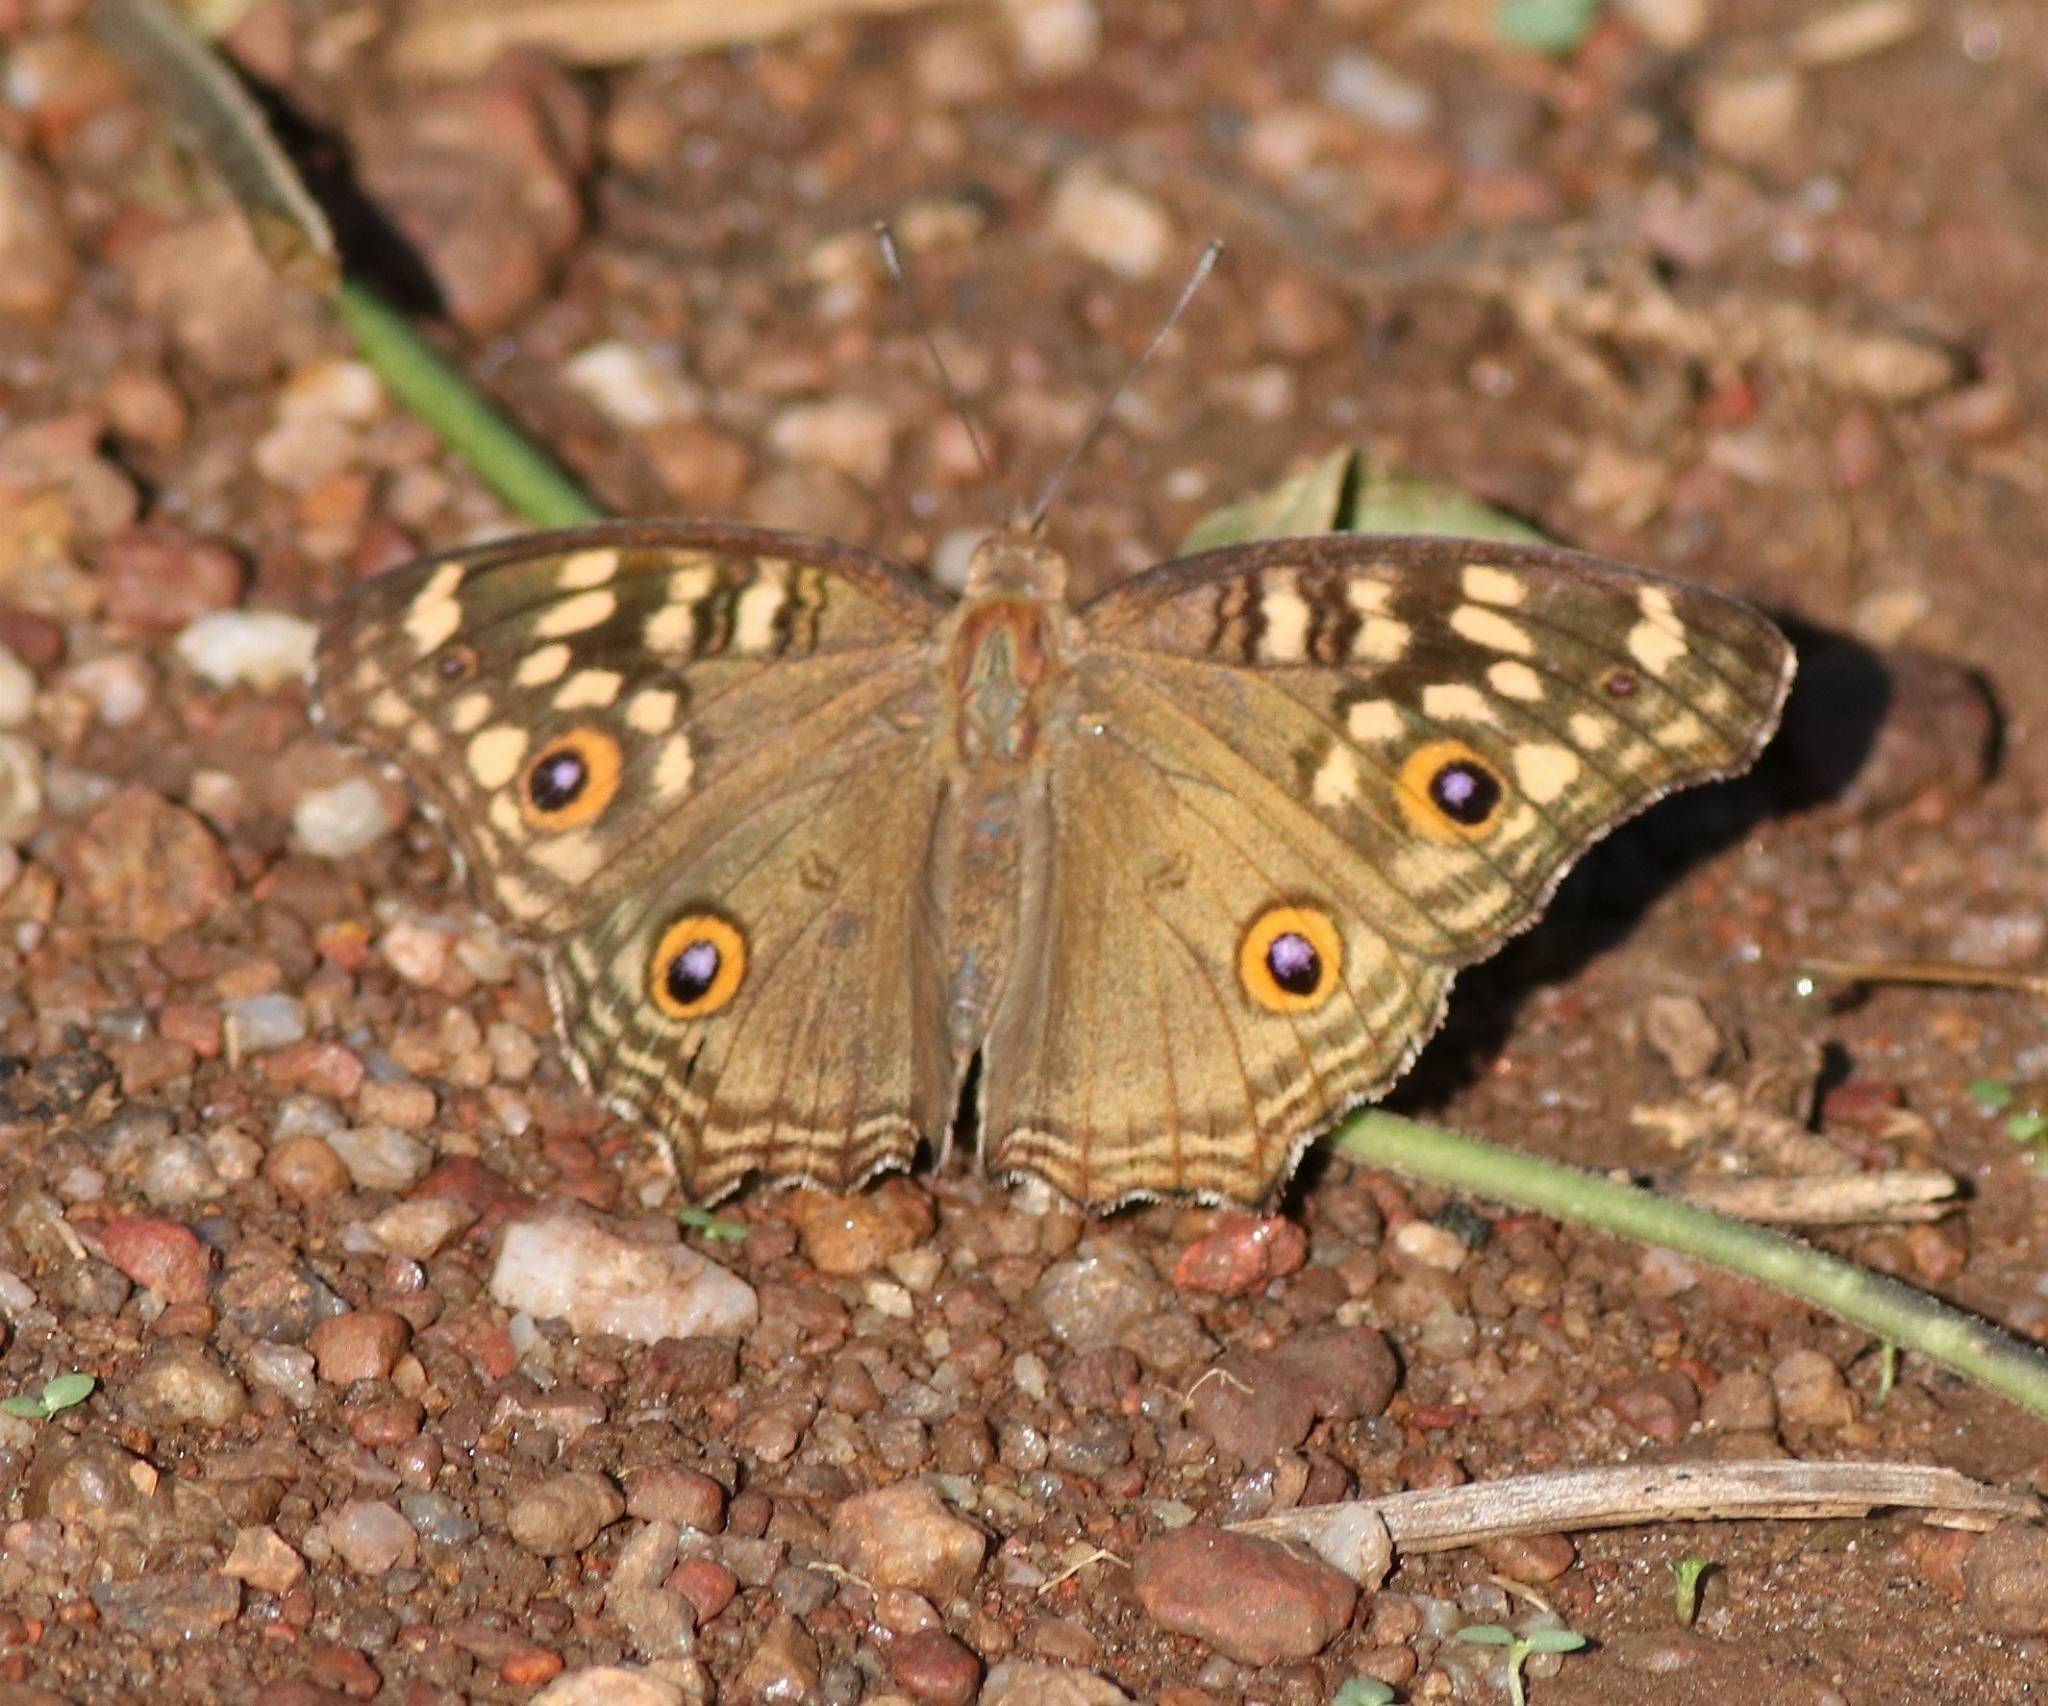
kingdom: Animalia
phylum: Arthropoda
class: Insecta
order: Lepidoptera
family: Nymphalidae
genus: Junonia
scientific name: Junonia lemonias
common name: Lemon pansy
